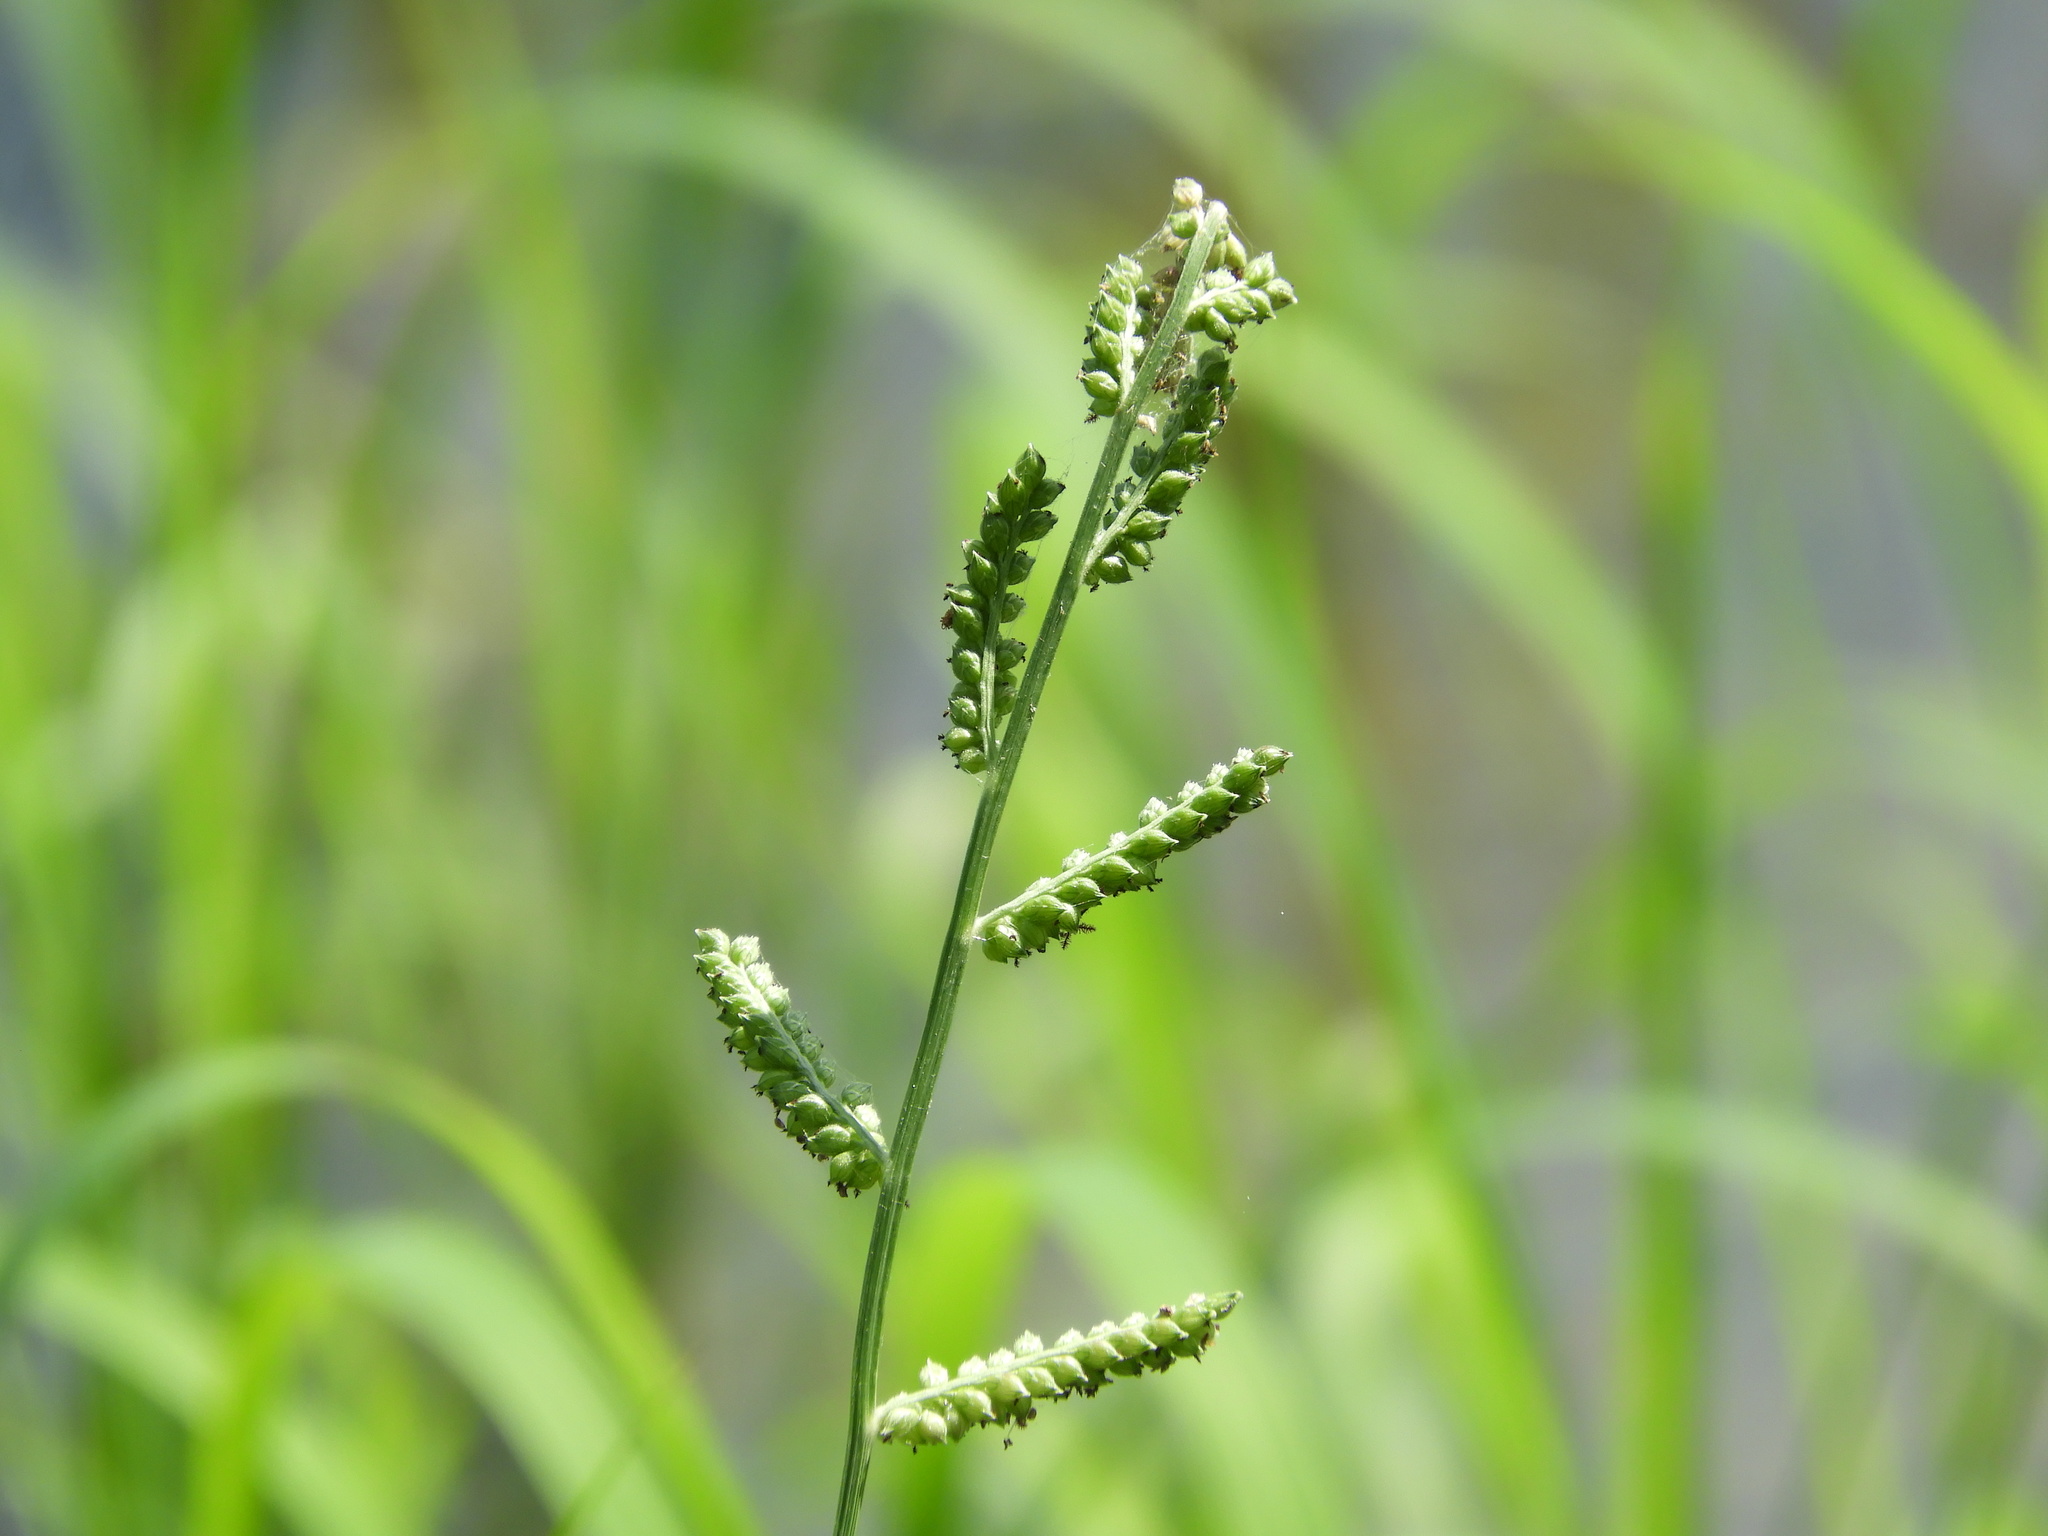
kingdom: Plantae
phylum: Tracheophyta
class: Liliopsida
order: Poales
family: Poaceae
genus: Echinochloa
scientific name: Echinochloa colonum
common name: Jungle rice
